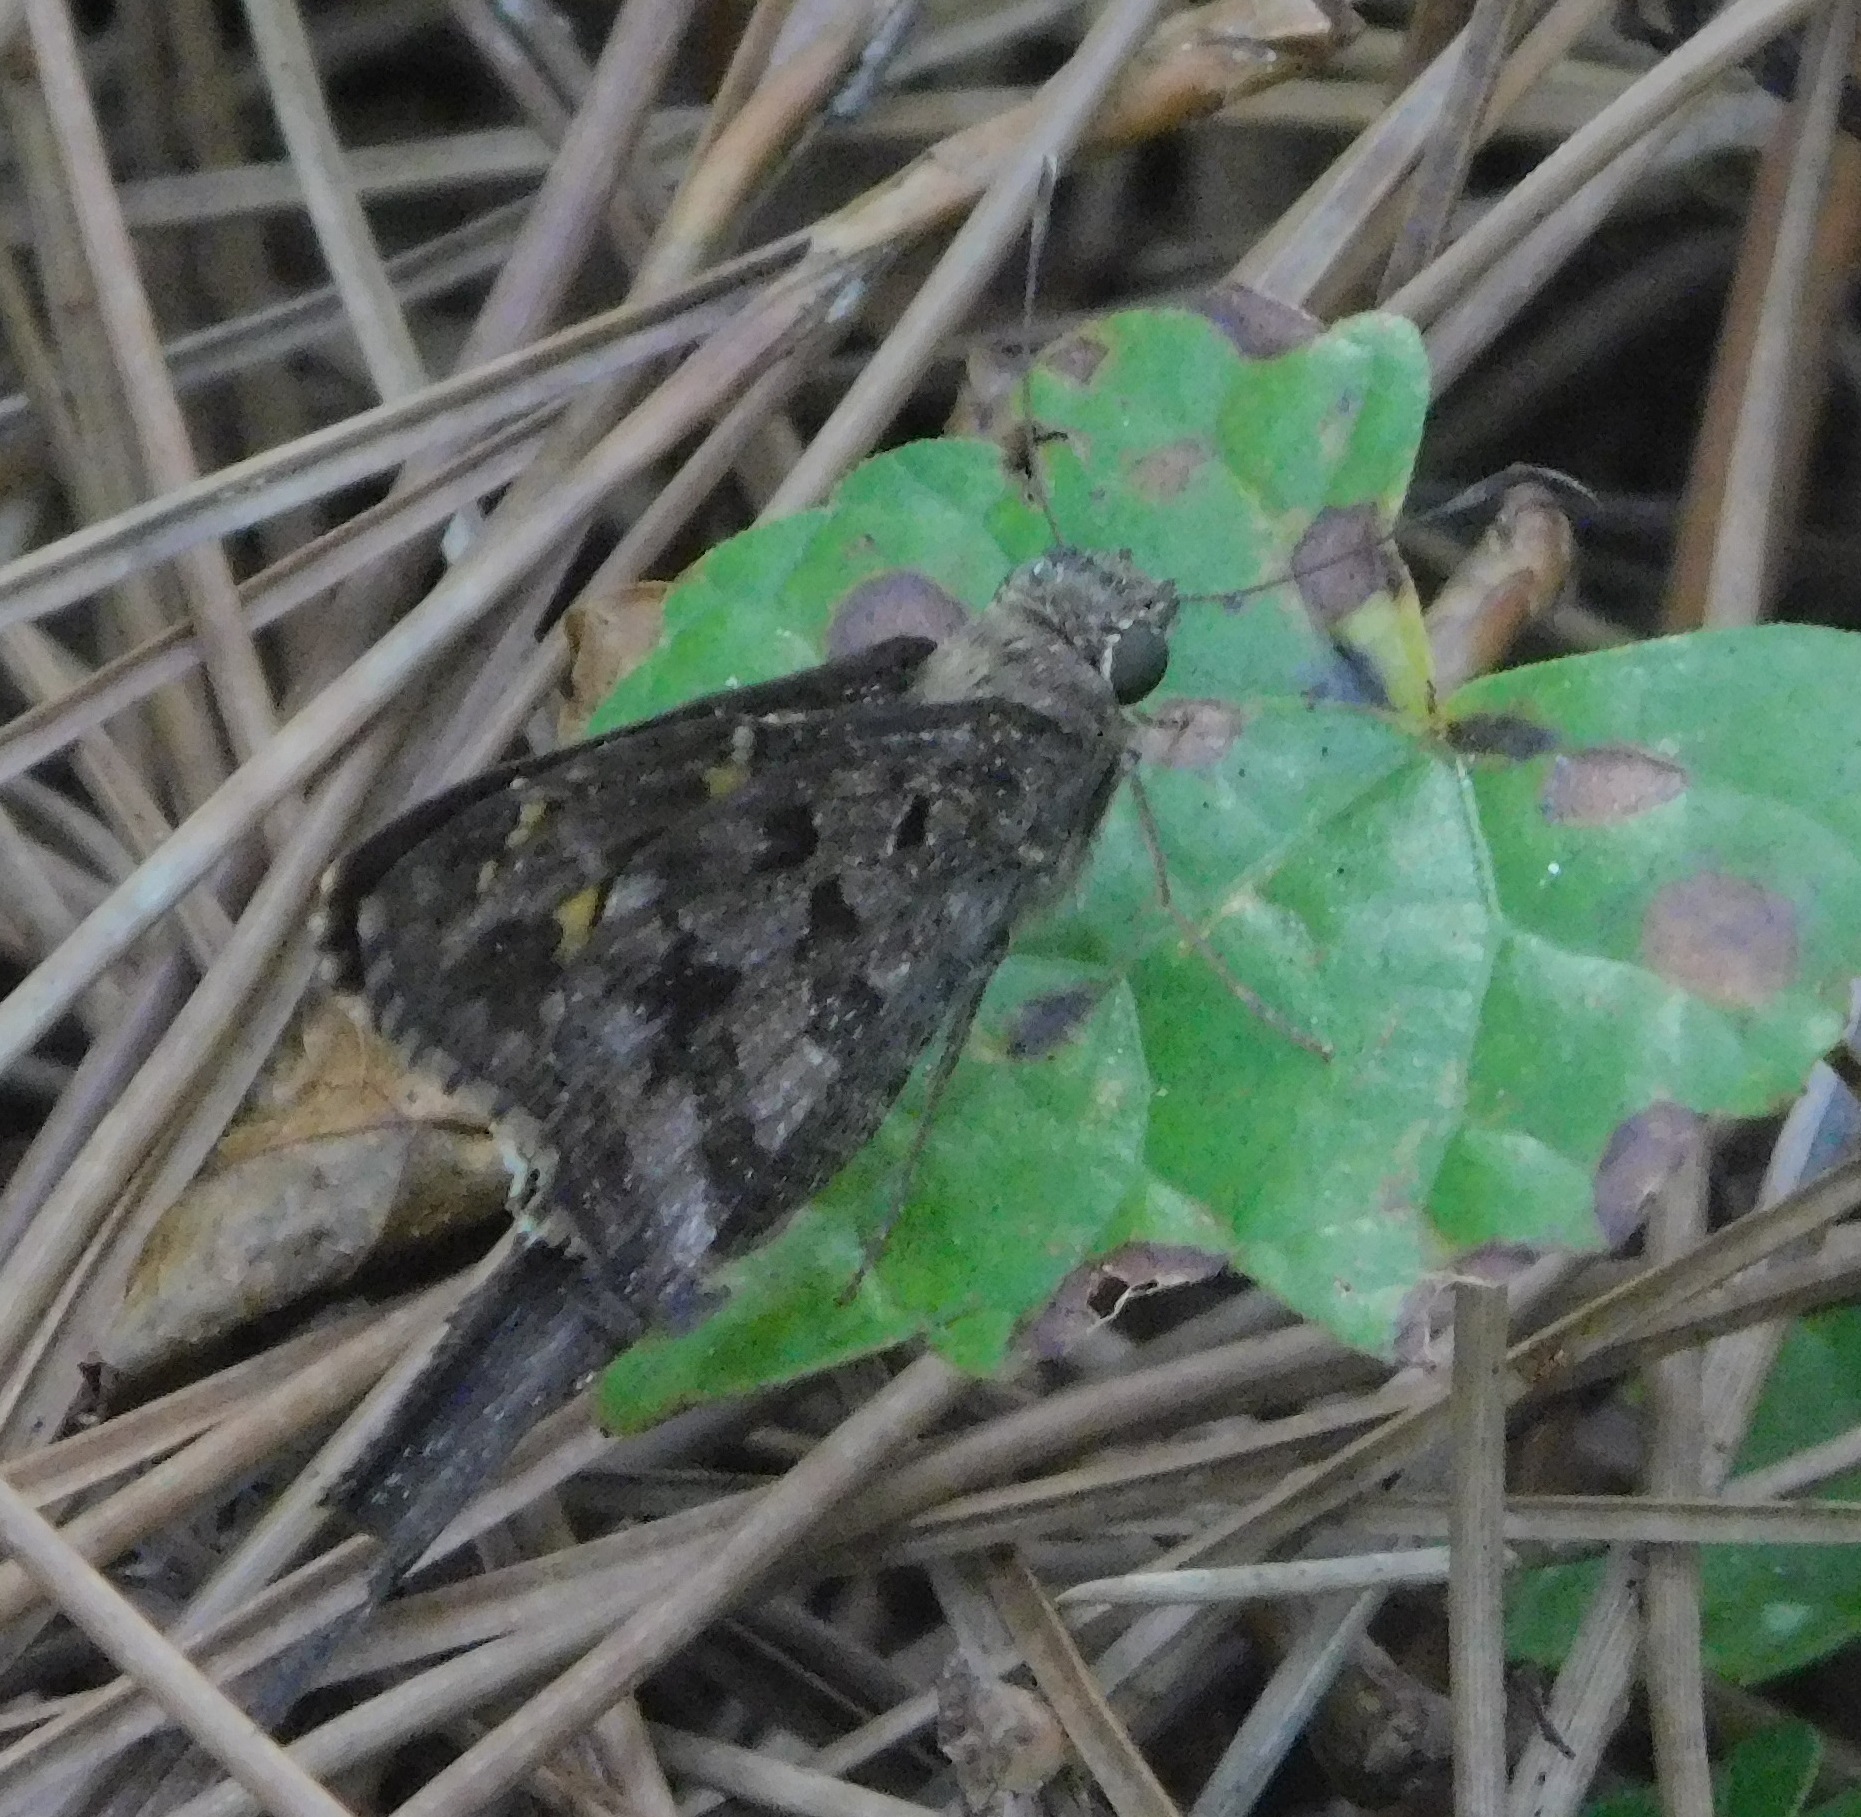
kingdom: Animalia
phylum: Arthropoda
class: Insecta
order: Lepidoptera
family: Hesperiidae
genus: Thorybes
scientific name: Thorybes
